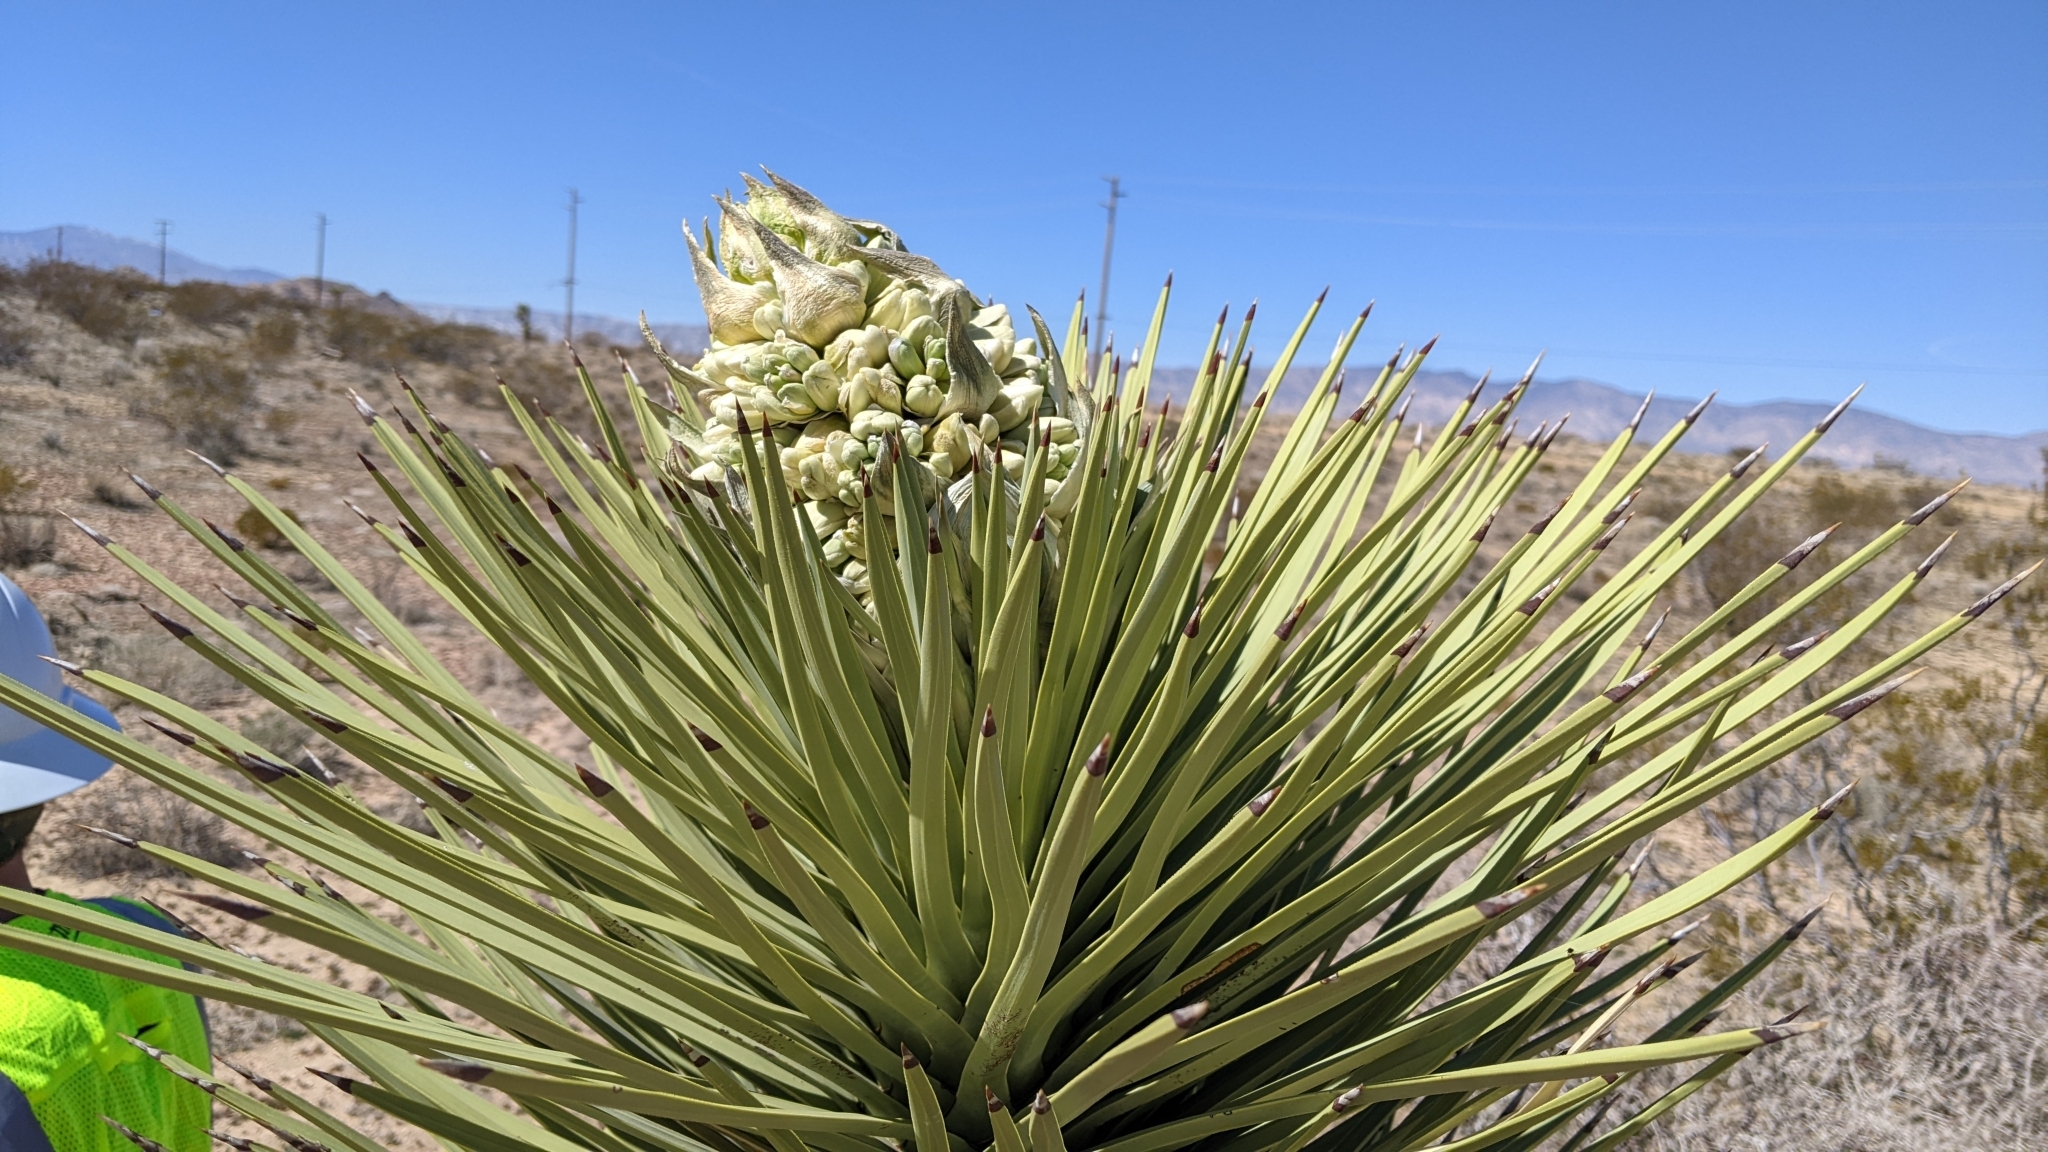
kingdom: Plantae
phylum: Tracheophyta
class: Liliopsida
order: Asparagales
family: Asparagaceae
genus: Yucca
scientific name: Yucca brevifolia
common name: Joshua tree
